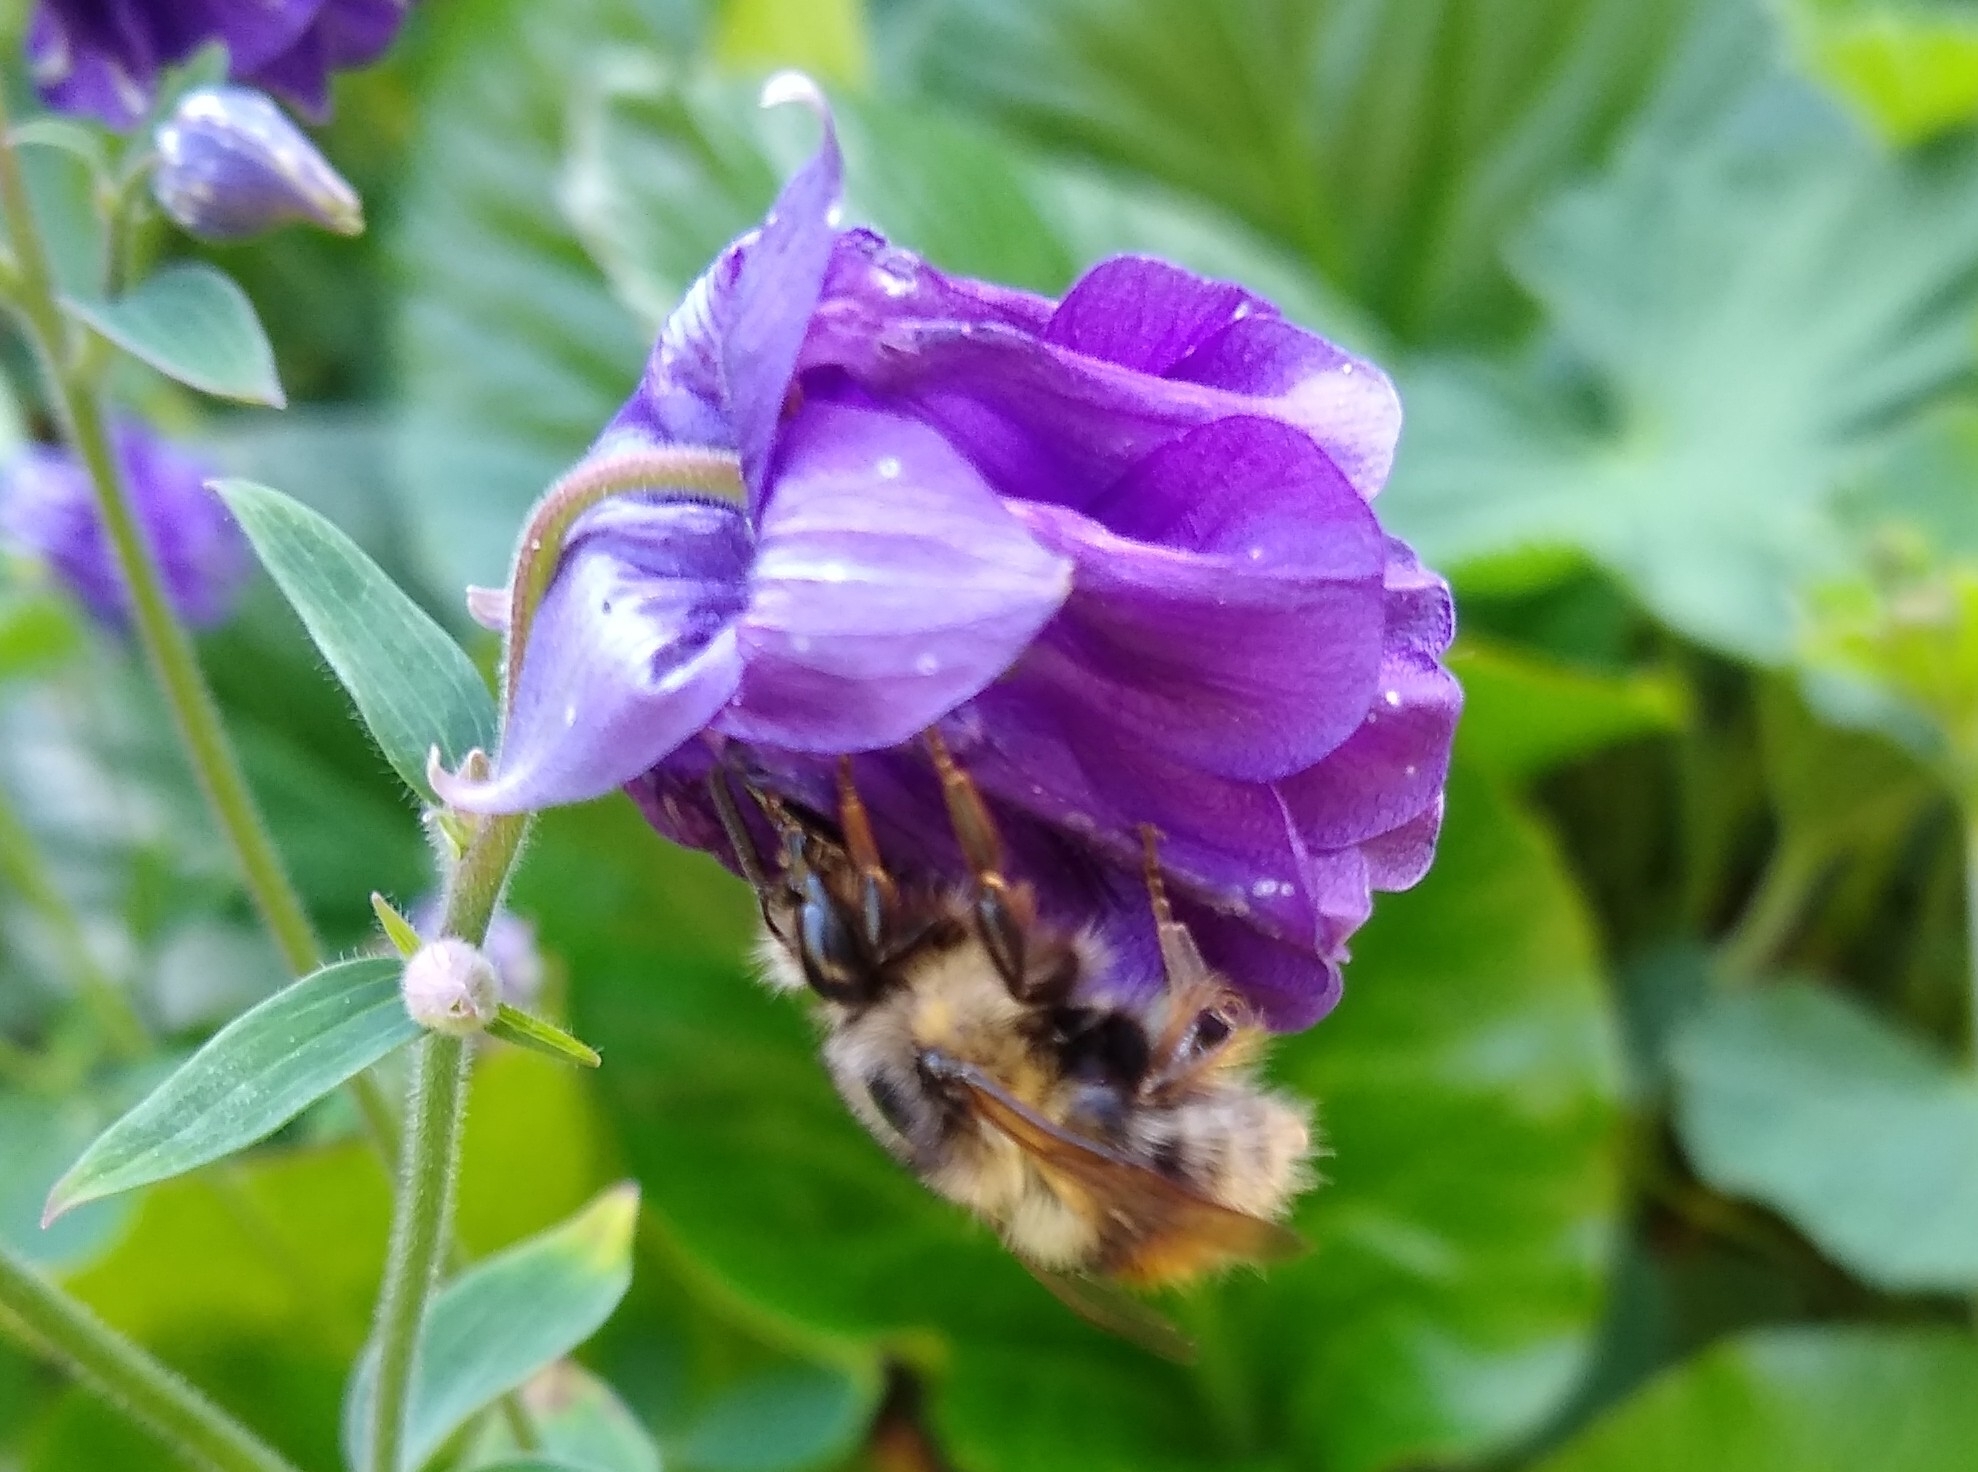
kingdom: Animalia
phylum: Arthropoda
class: Insecta
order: Hymenoptera
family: Apidae
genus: Bombus
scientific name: Bombus mixtus
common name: Fuzzy-horned bumble bee
